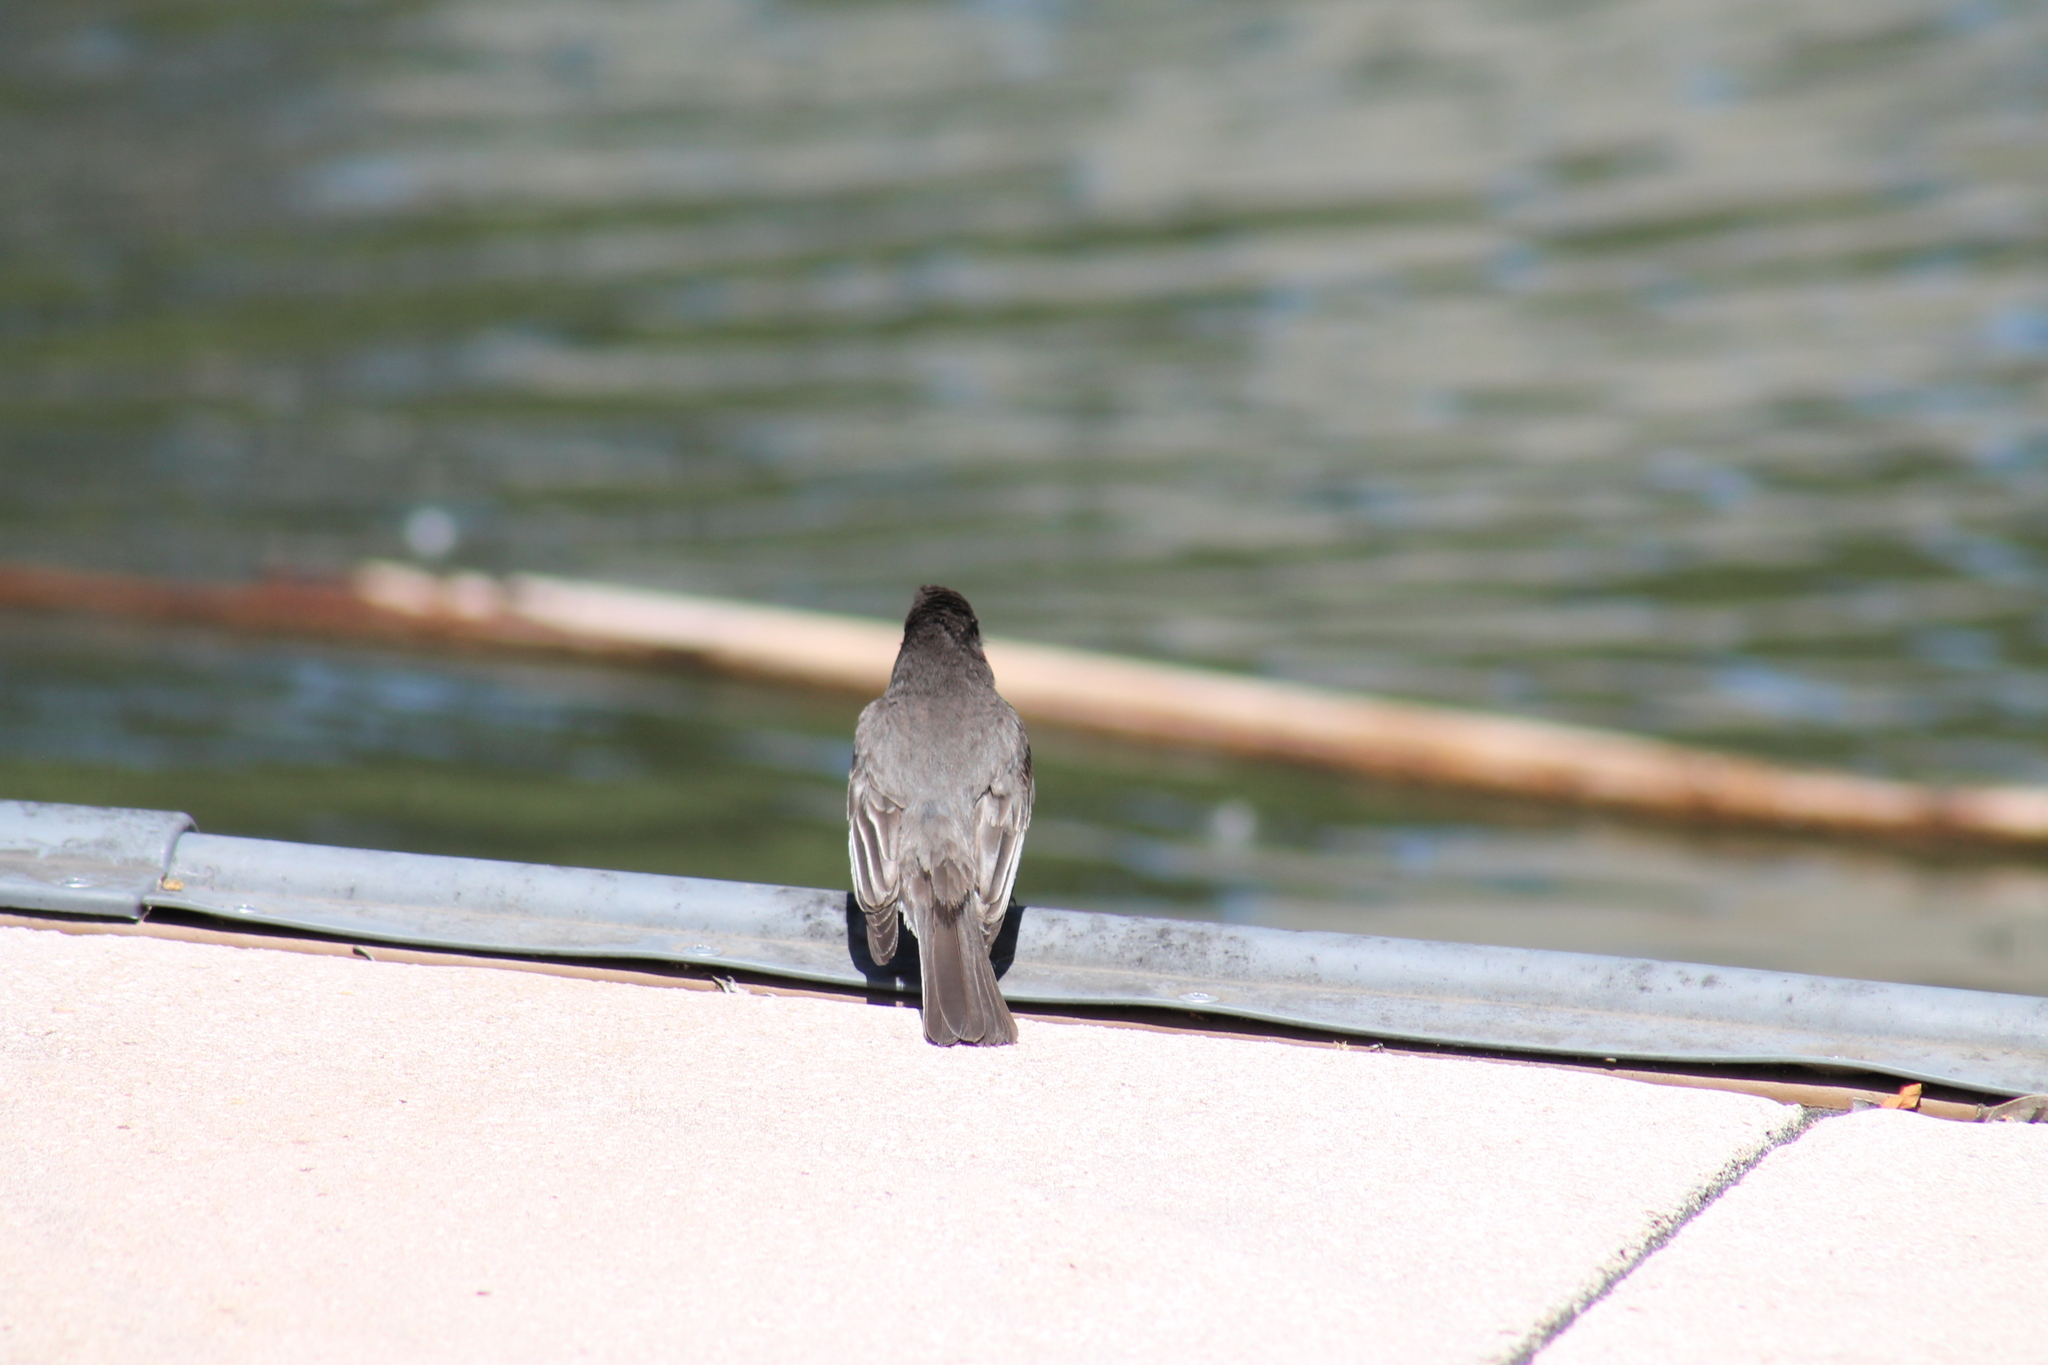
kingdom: Animalia
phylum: Chordata
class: Aves
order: Passeriformes
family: Tyrannidae
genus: Sayornis
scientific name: Sayornis nigricans
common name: Black phoebe
